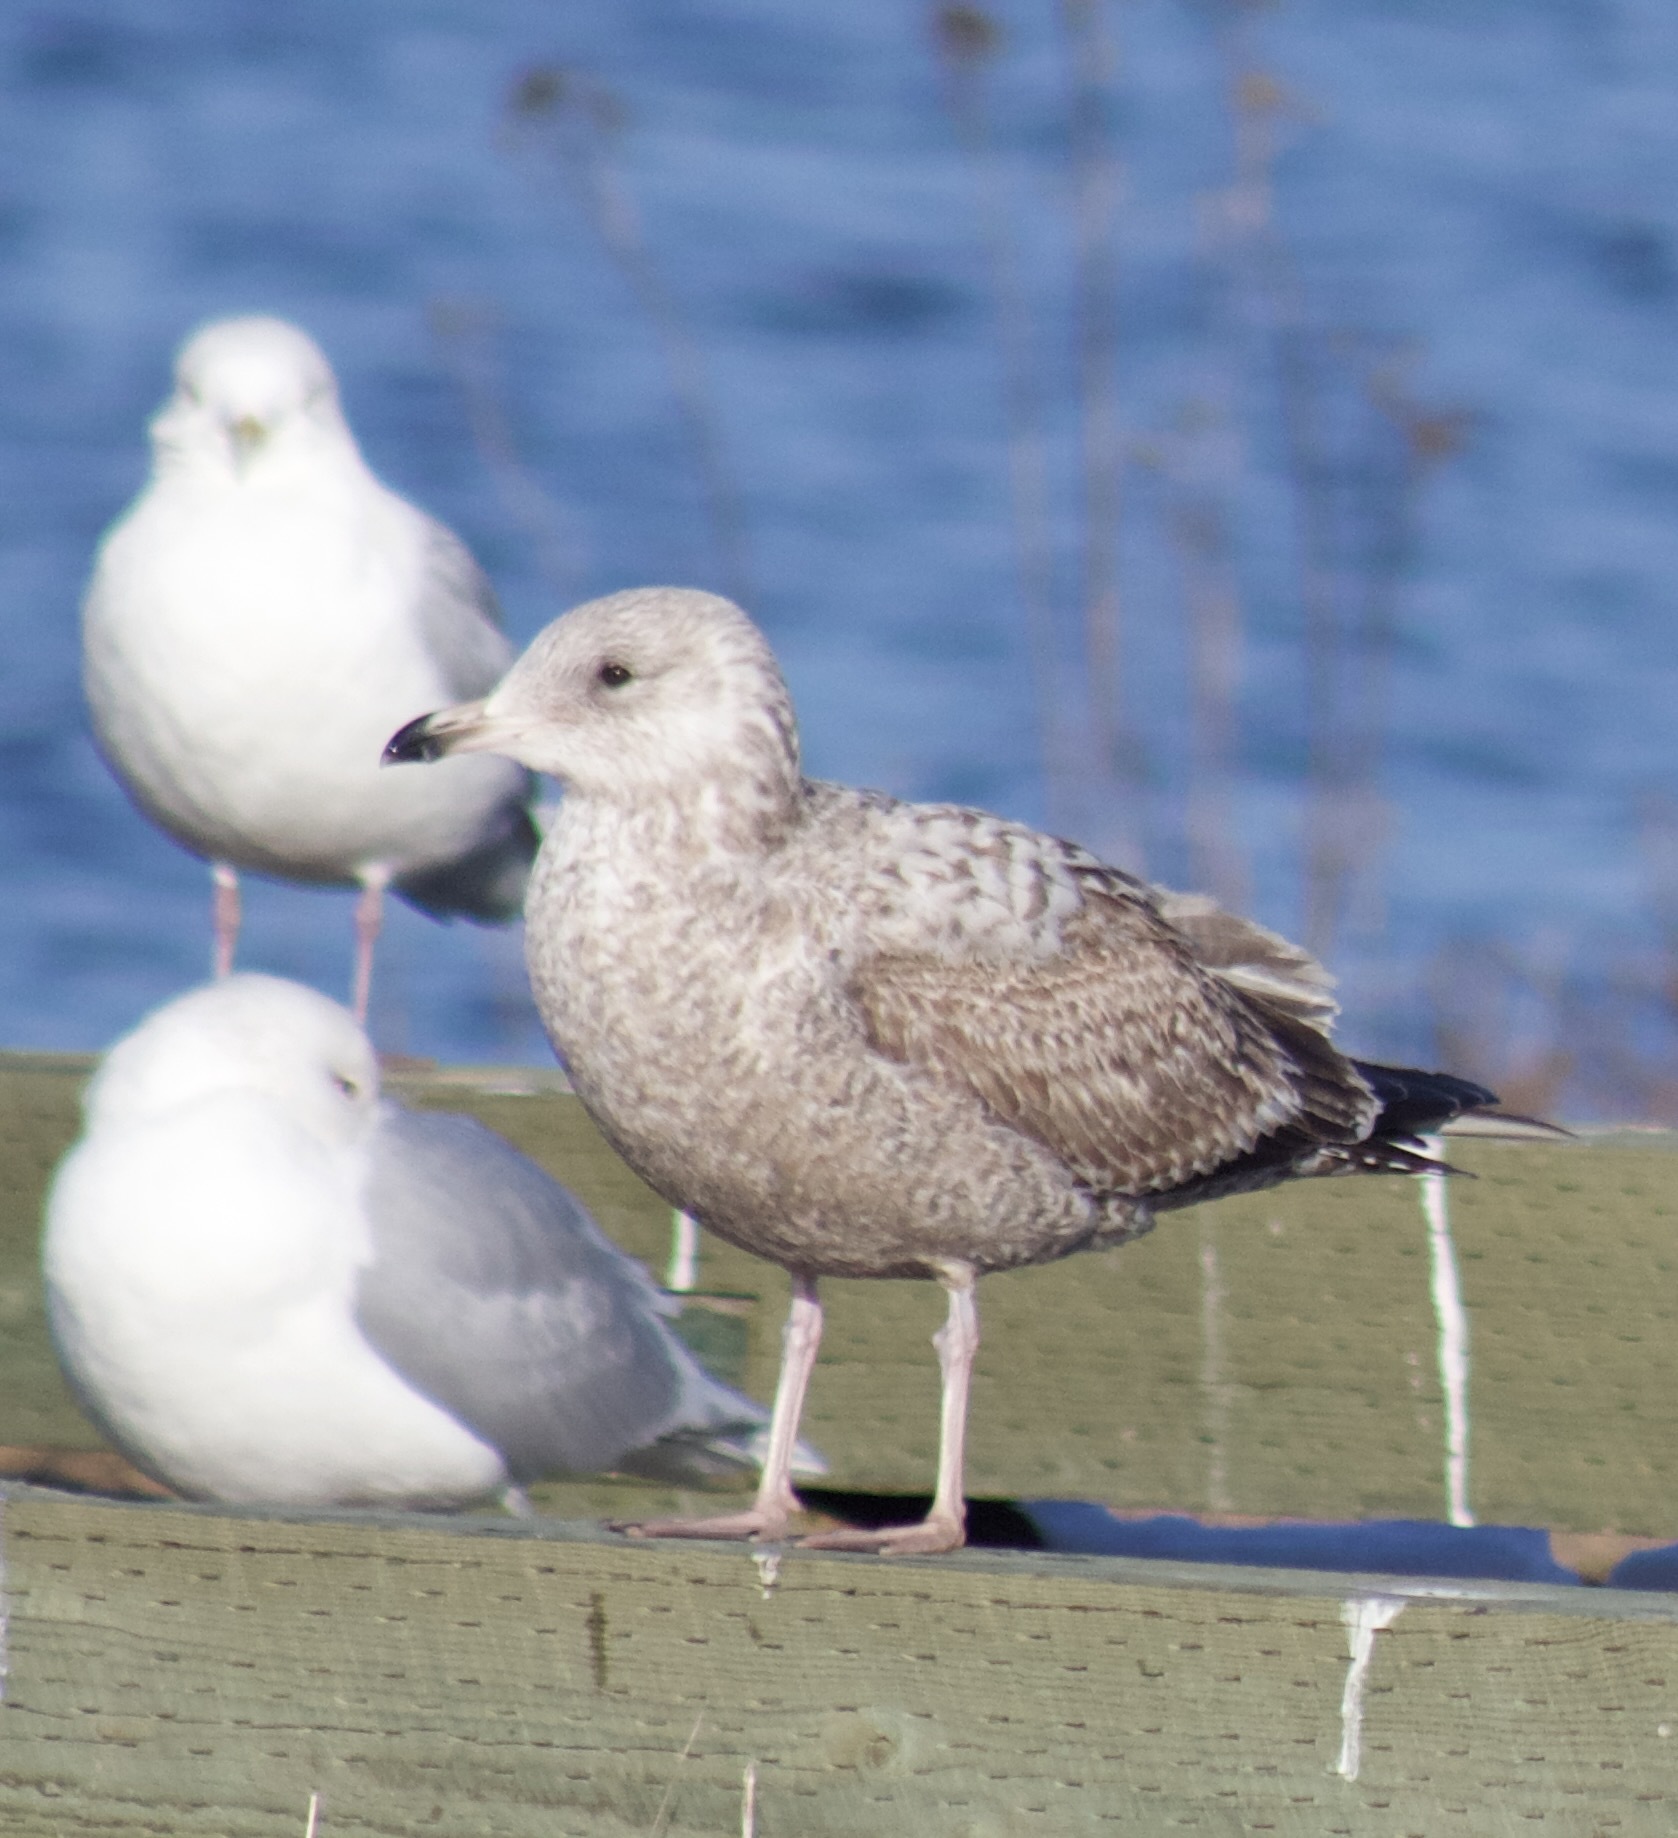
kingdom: Animalia
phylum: Chordata
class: Aves
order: Charadriiformes
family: Laridae
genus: Larus
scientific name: Larus argentatus
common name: Herring gull
